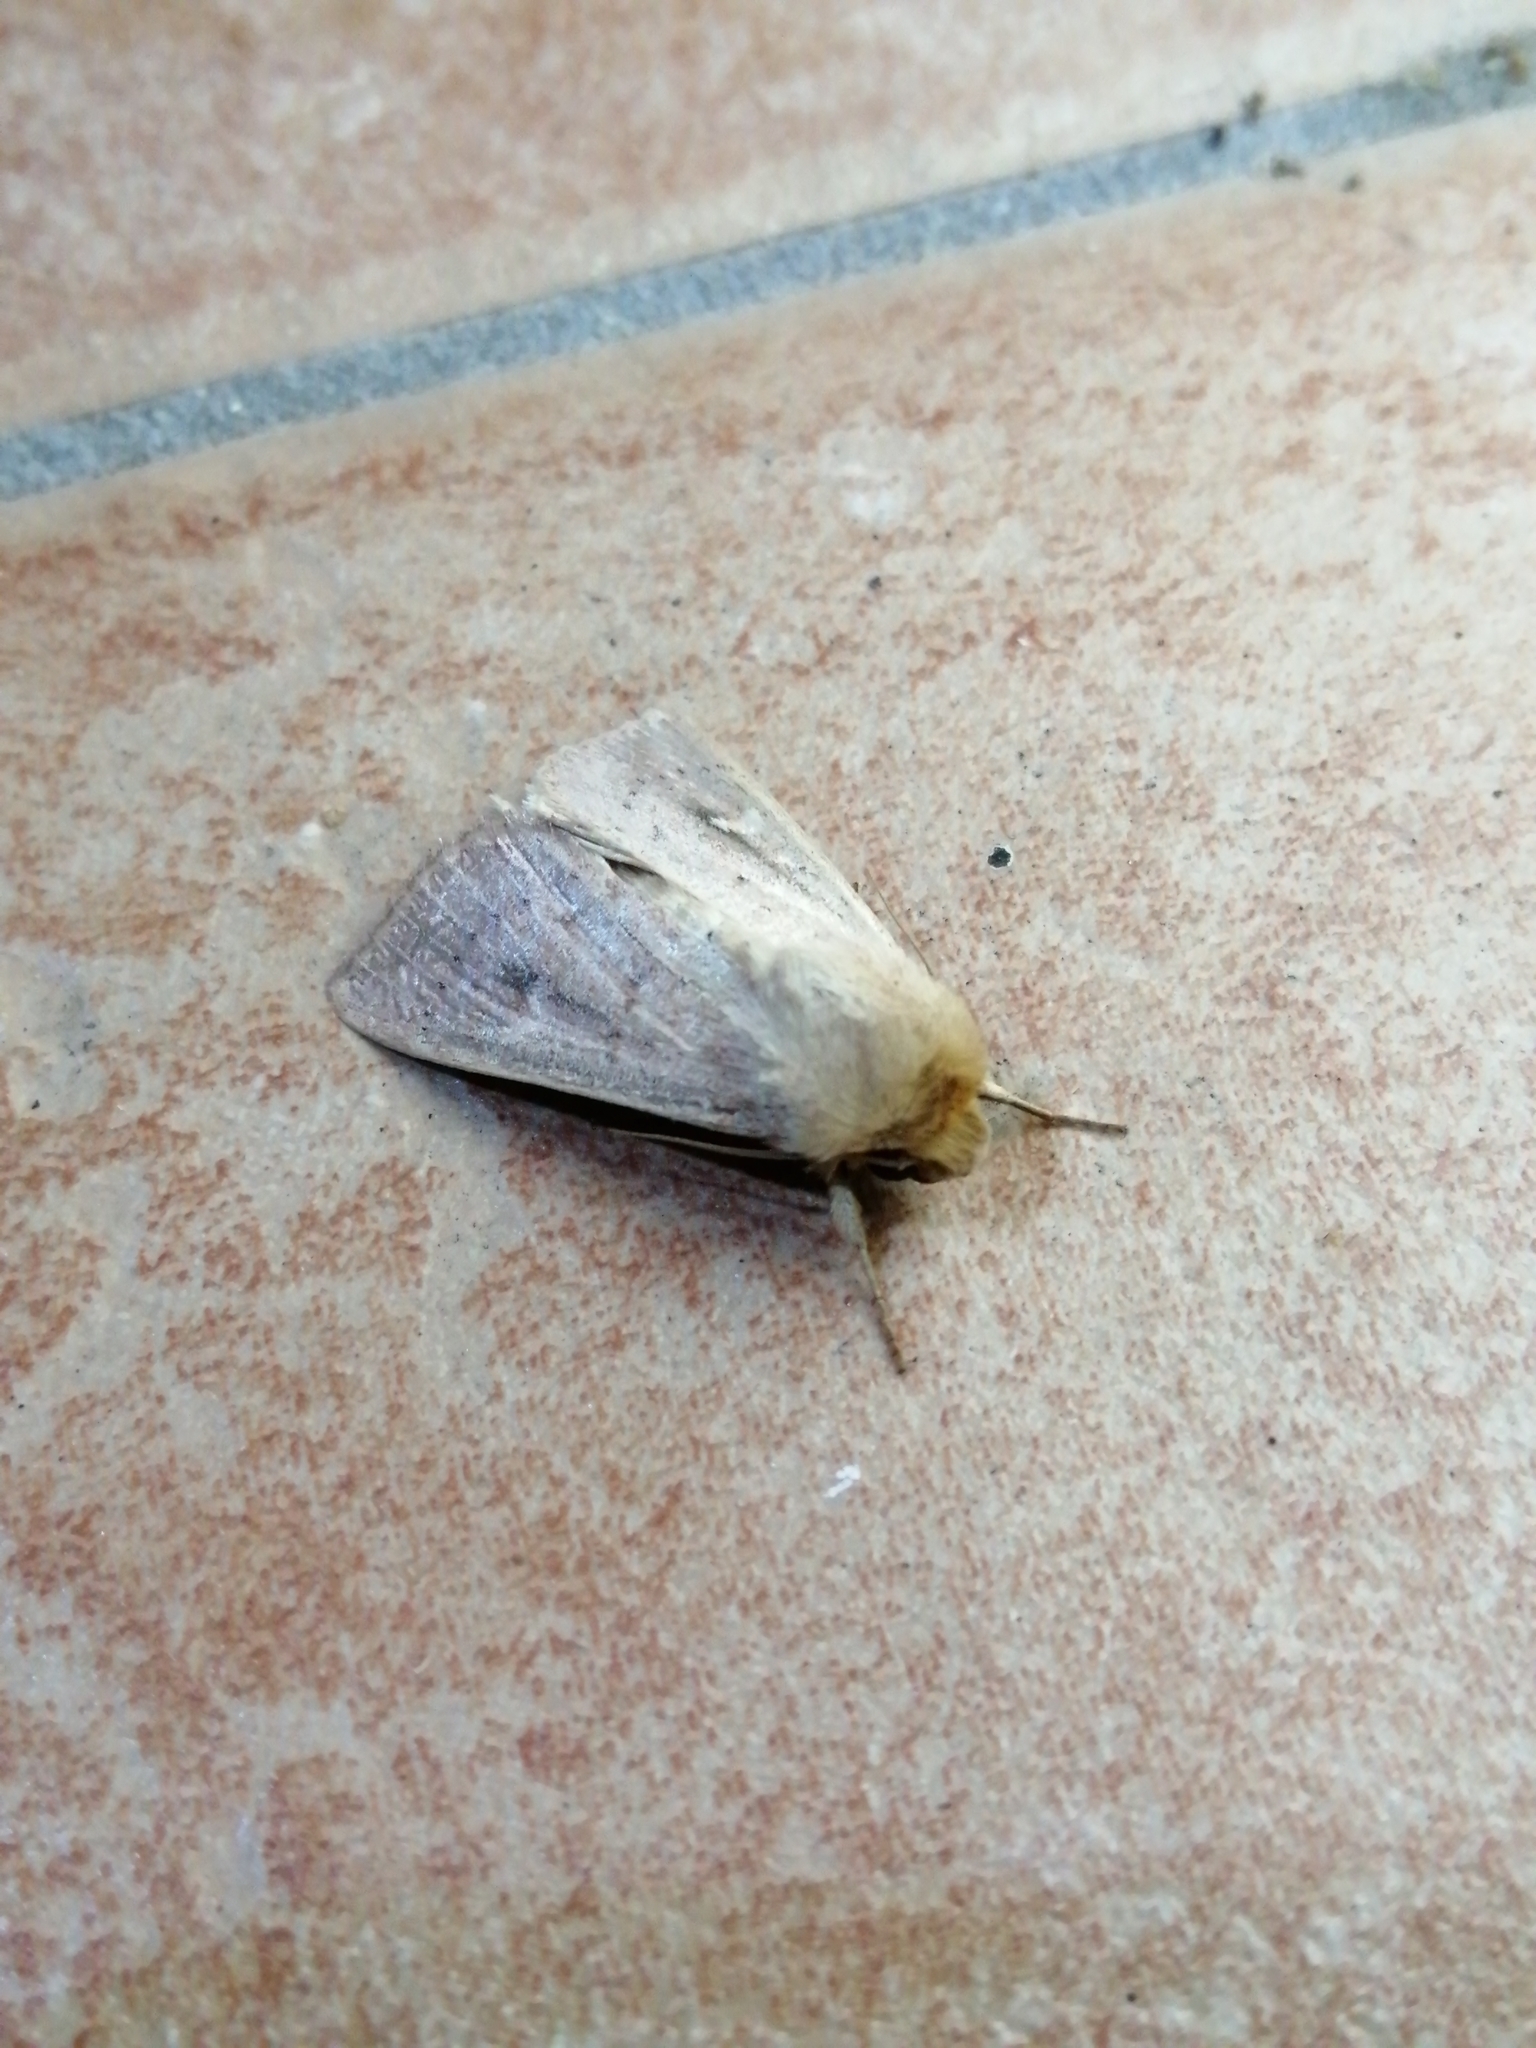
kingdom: Animalia
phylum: Arthropoda
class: Insecta
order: Lepidoptera
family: Noctuidae
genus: Mythimna
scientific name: Mythimna ferrago
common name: Clay
